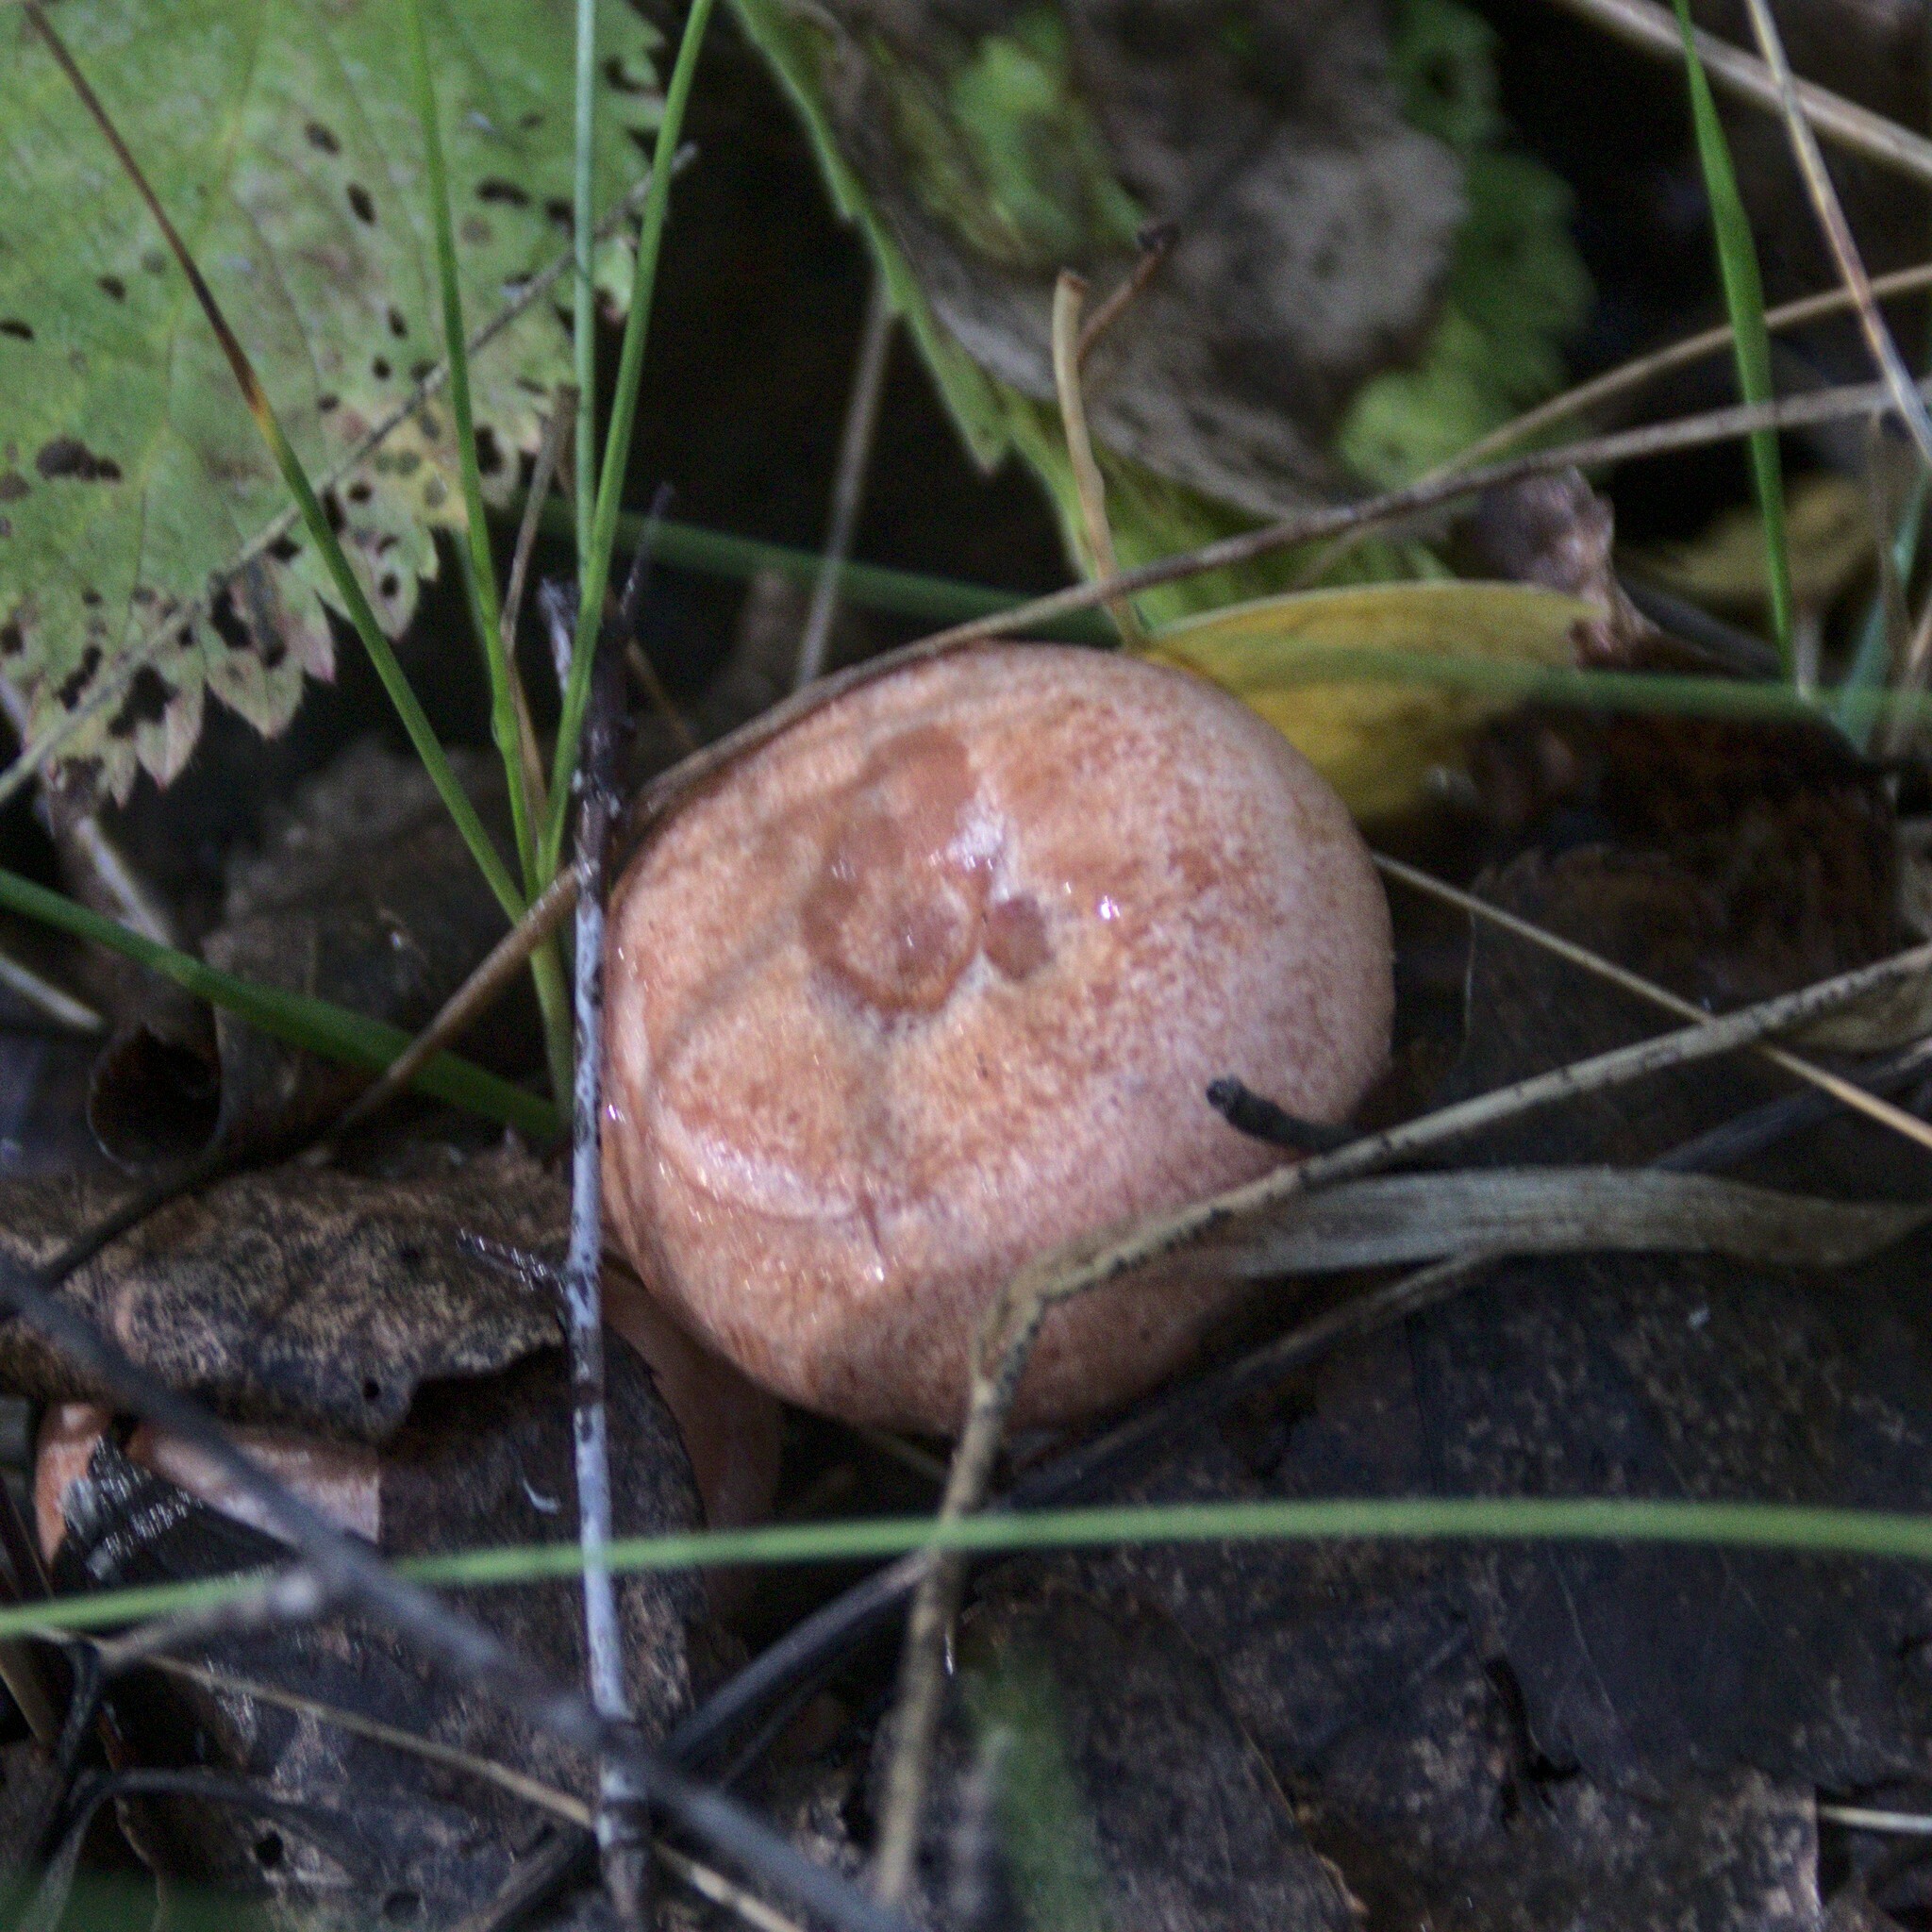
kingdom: Fungi
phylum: Basidiomycota
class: Agaricomycetes
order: Russulales
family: Russulaceae
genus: Lactarius
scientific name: Lactarius torminosus
